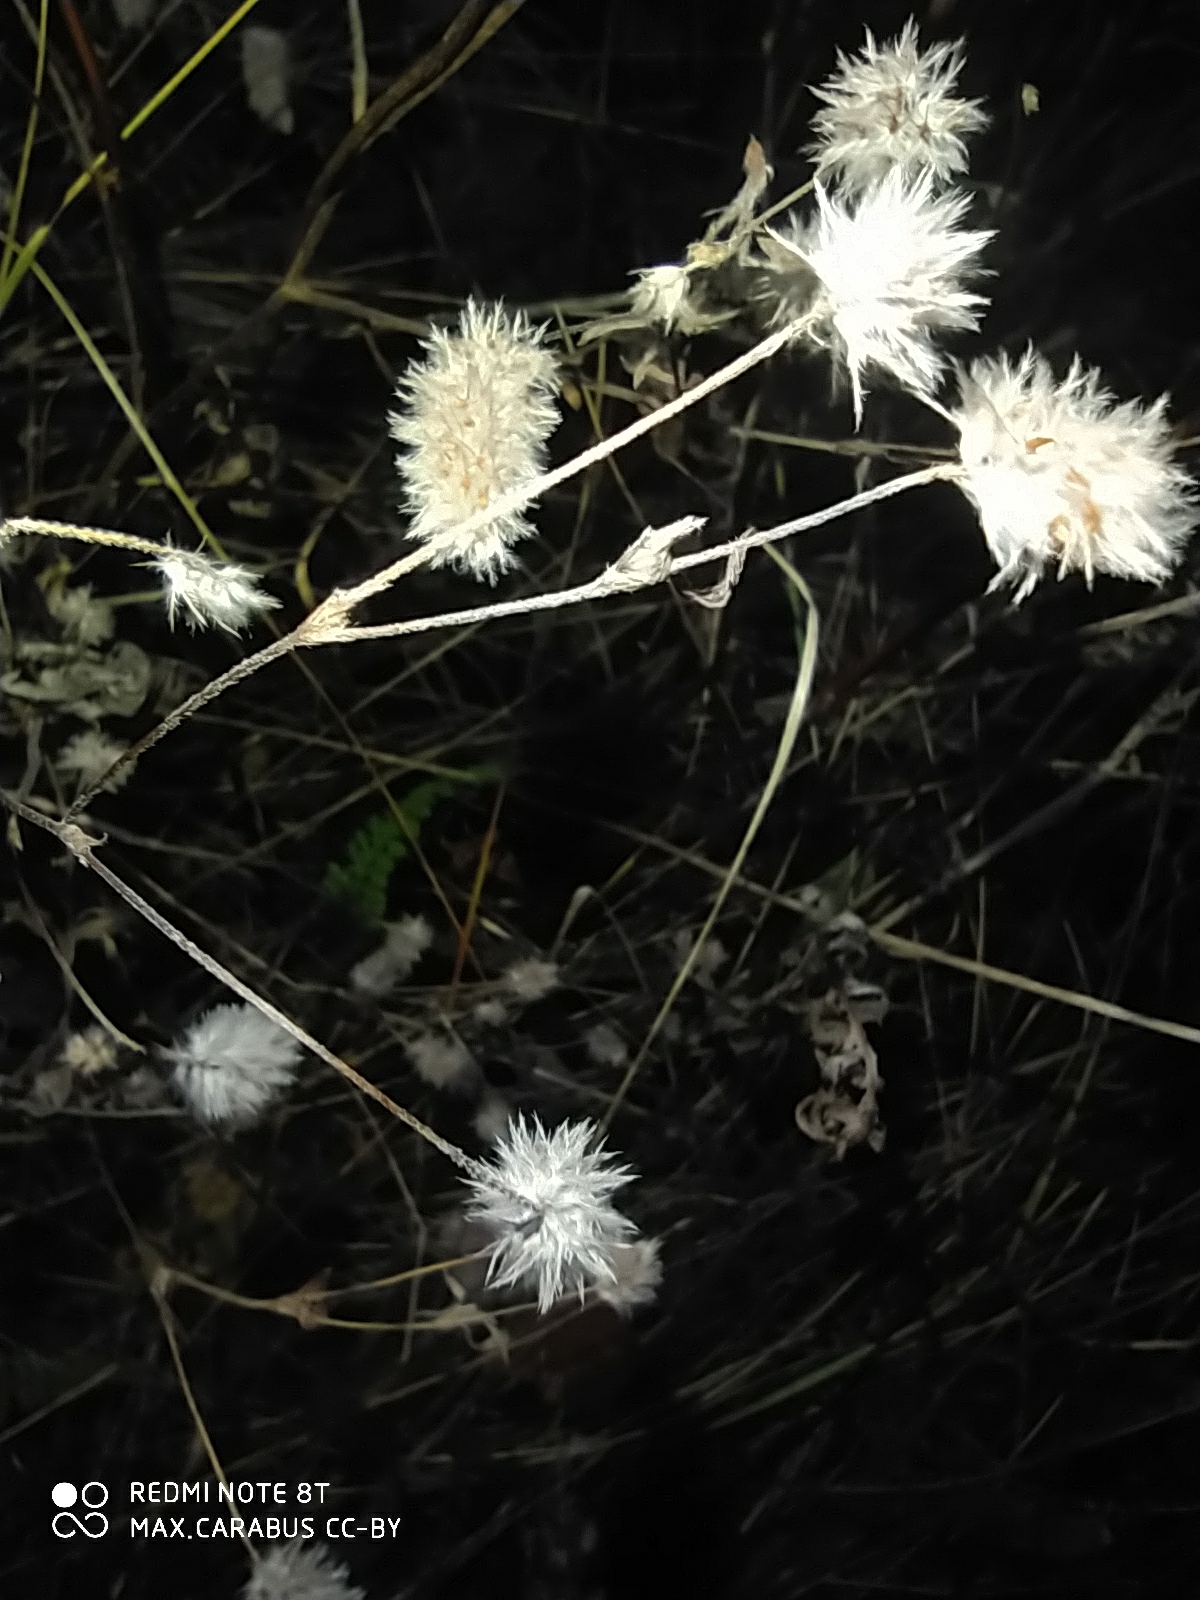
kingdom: Plantae
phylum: Tracheophyta
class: Magnoliopsida
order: Fabales
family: Fabaceae
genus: Trifolium
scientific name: Trifolium arvense
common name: Hare's-foot clover
